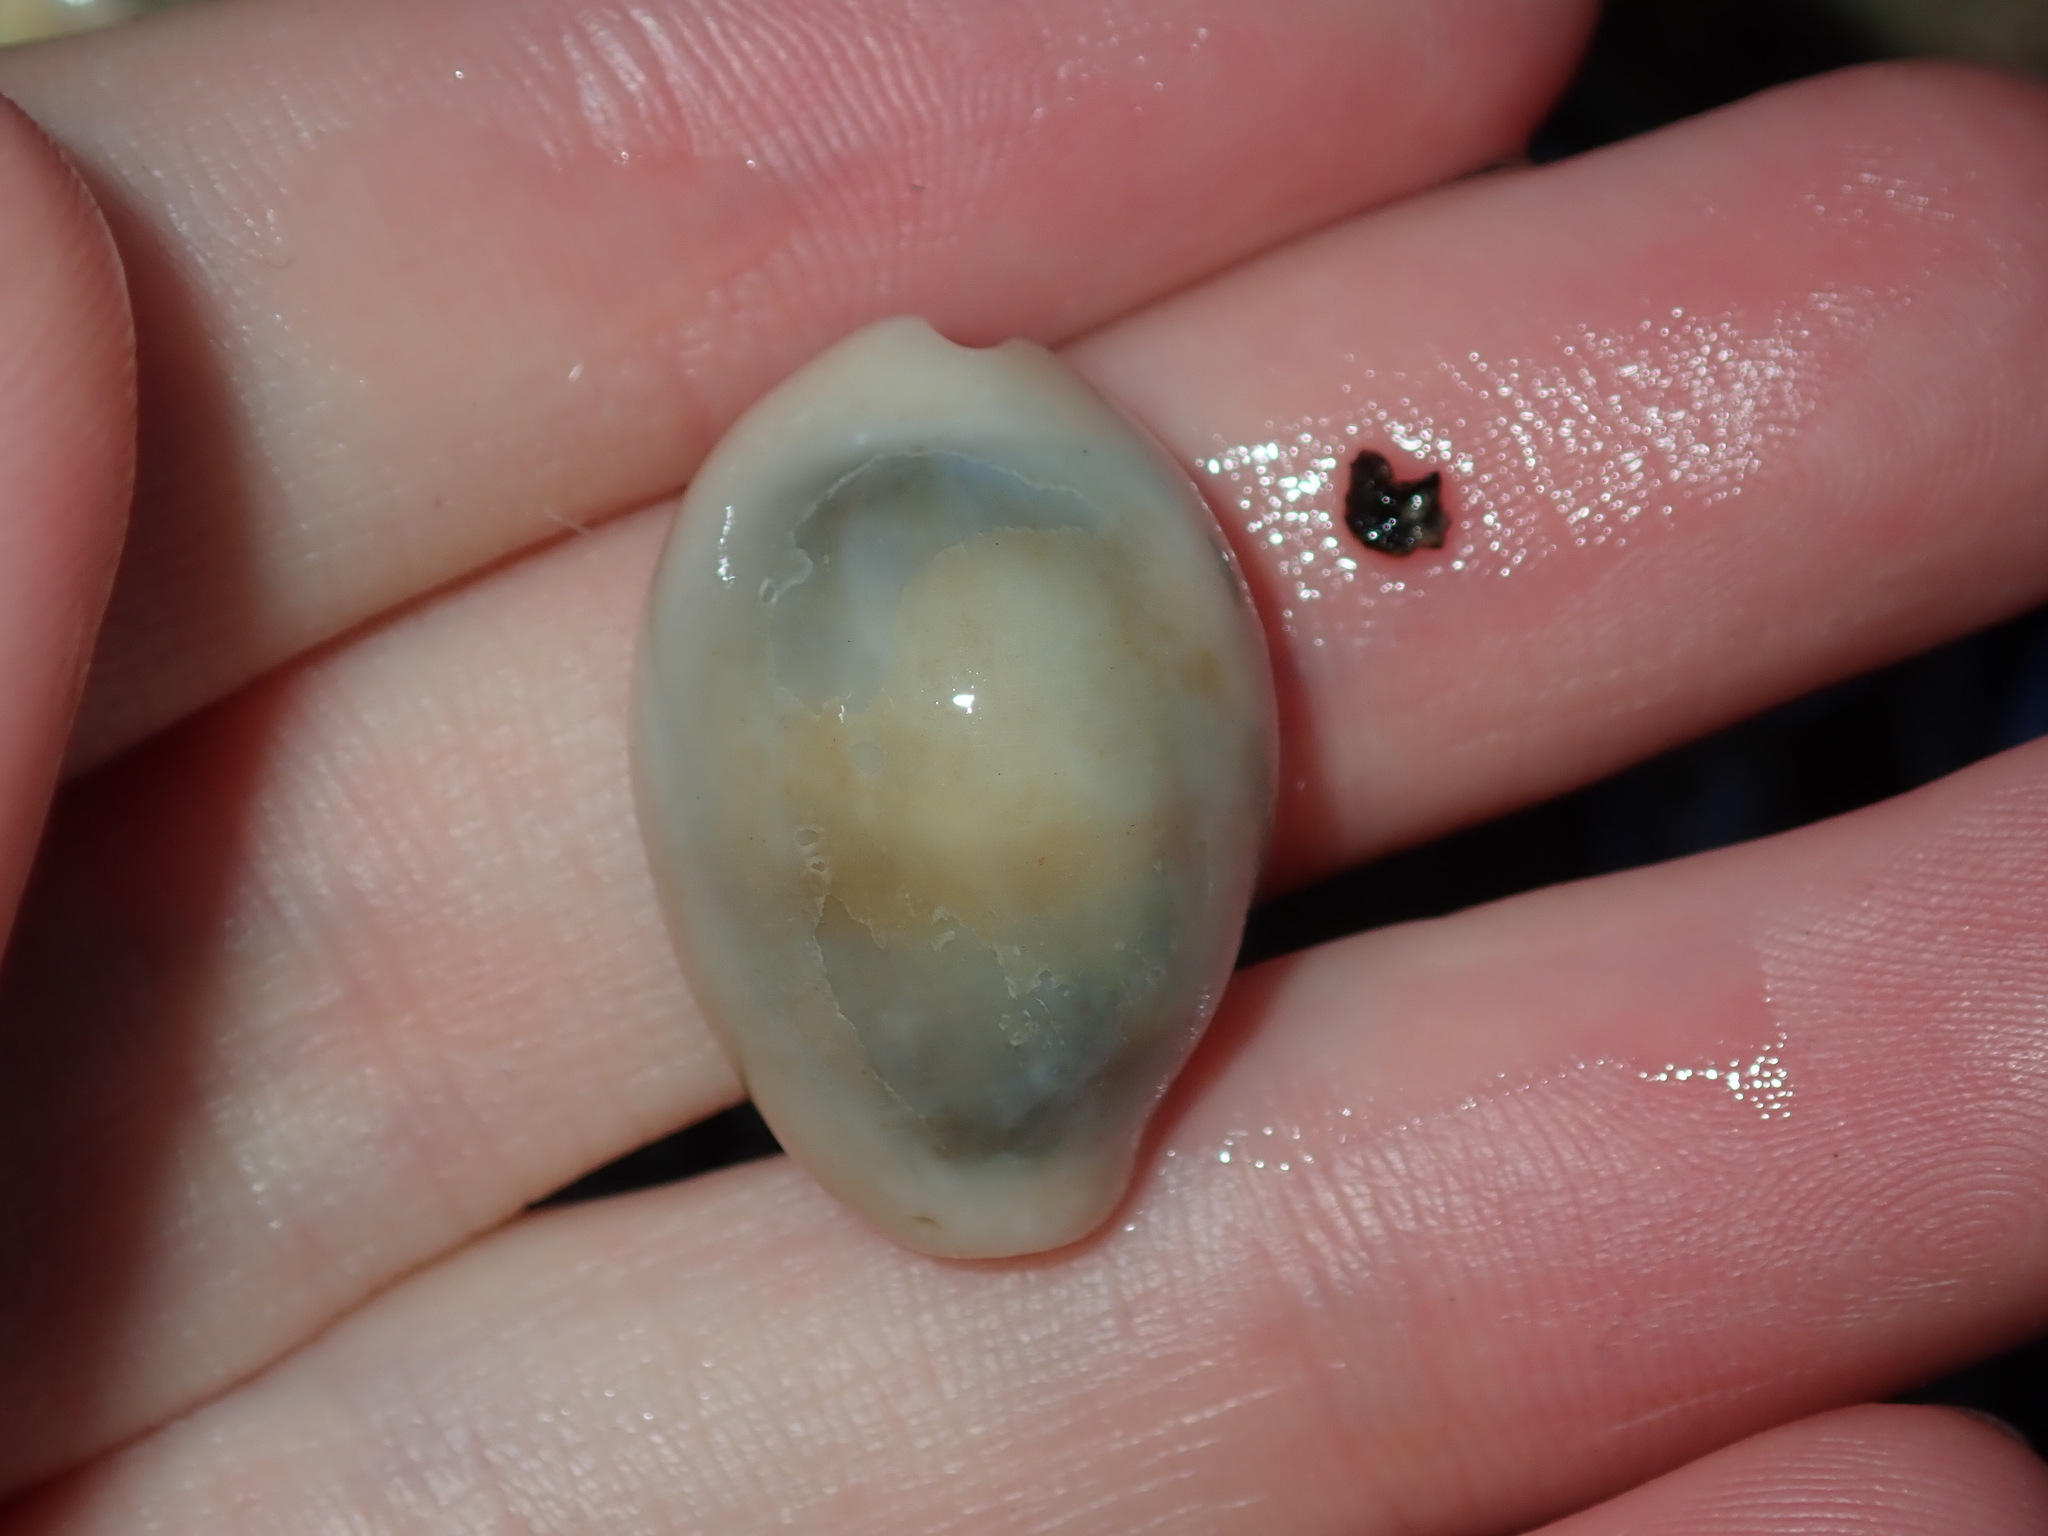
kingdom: Animalia
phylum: Mollusca
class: Gastropoda
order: Littorinimorpha
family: Cypraeidae
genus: Monetaria
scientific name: Monetaria annulus
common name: Ring cowrie
